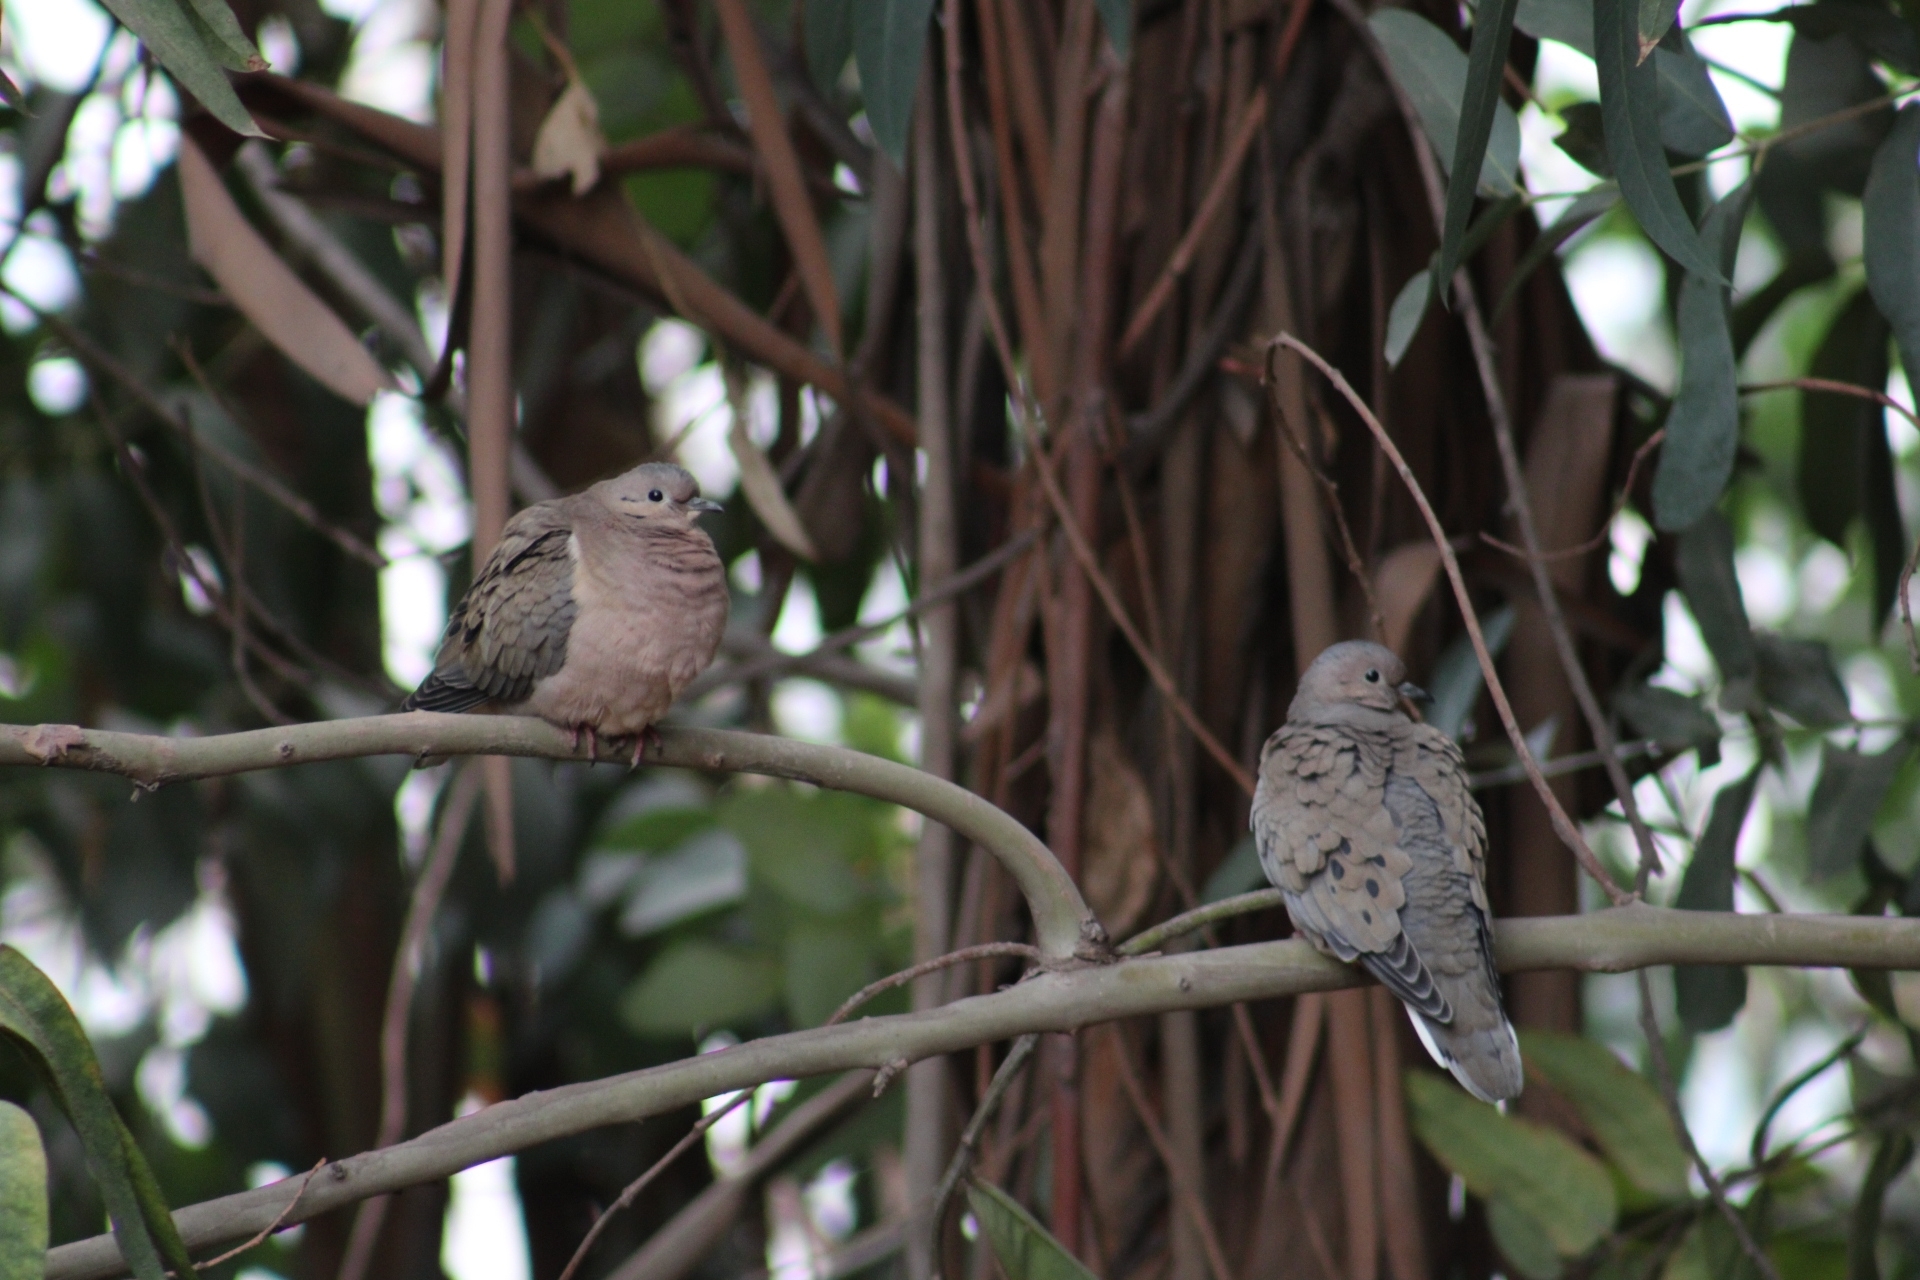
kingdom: Animalia
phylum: Chordata
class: Aves
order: Columbiformes
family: Columbidae
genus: Zenaida
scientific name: Zenaida auriculata
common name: Eared dove
